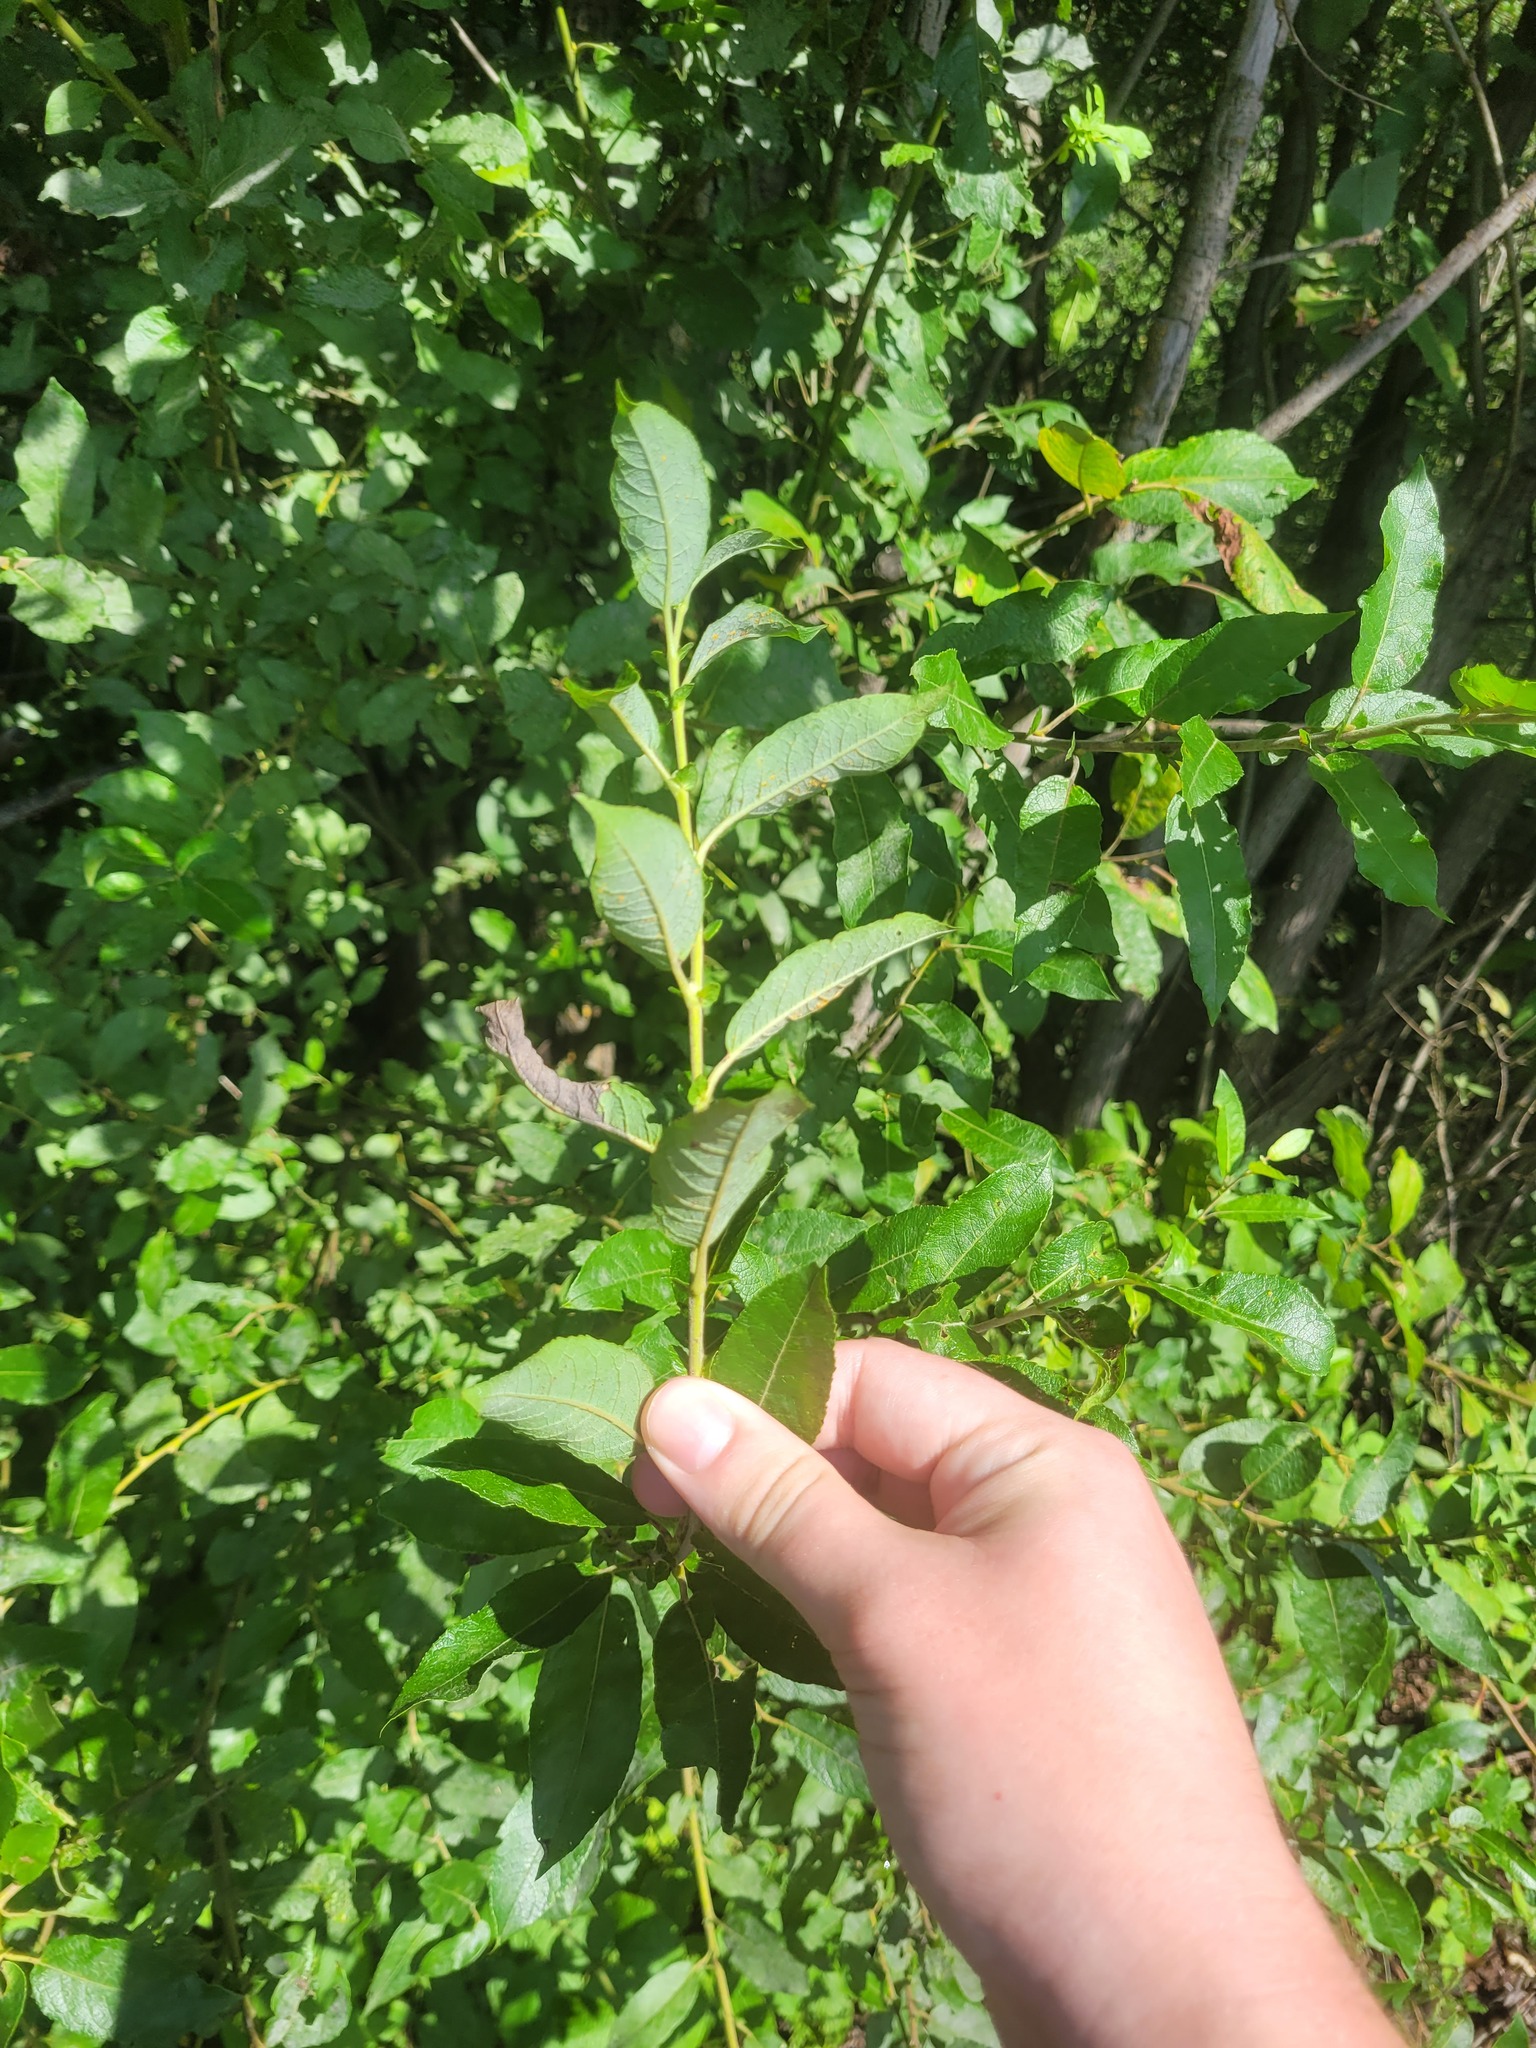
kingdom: Plantae
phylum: Tracheophyta
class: Magnoliopsida
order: Malpighiales
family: Salicaceae
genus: Salix
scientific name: Salix myrsinifolia
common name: Dark-leaved willow
